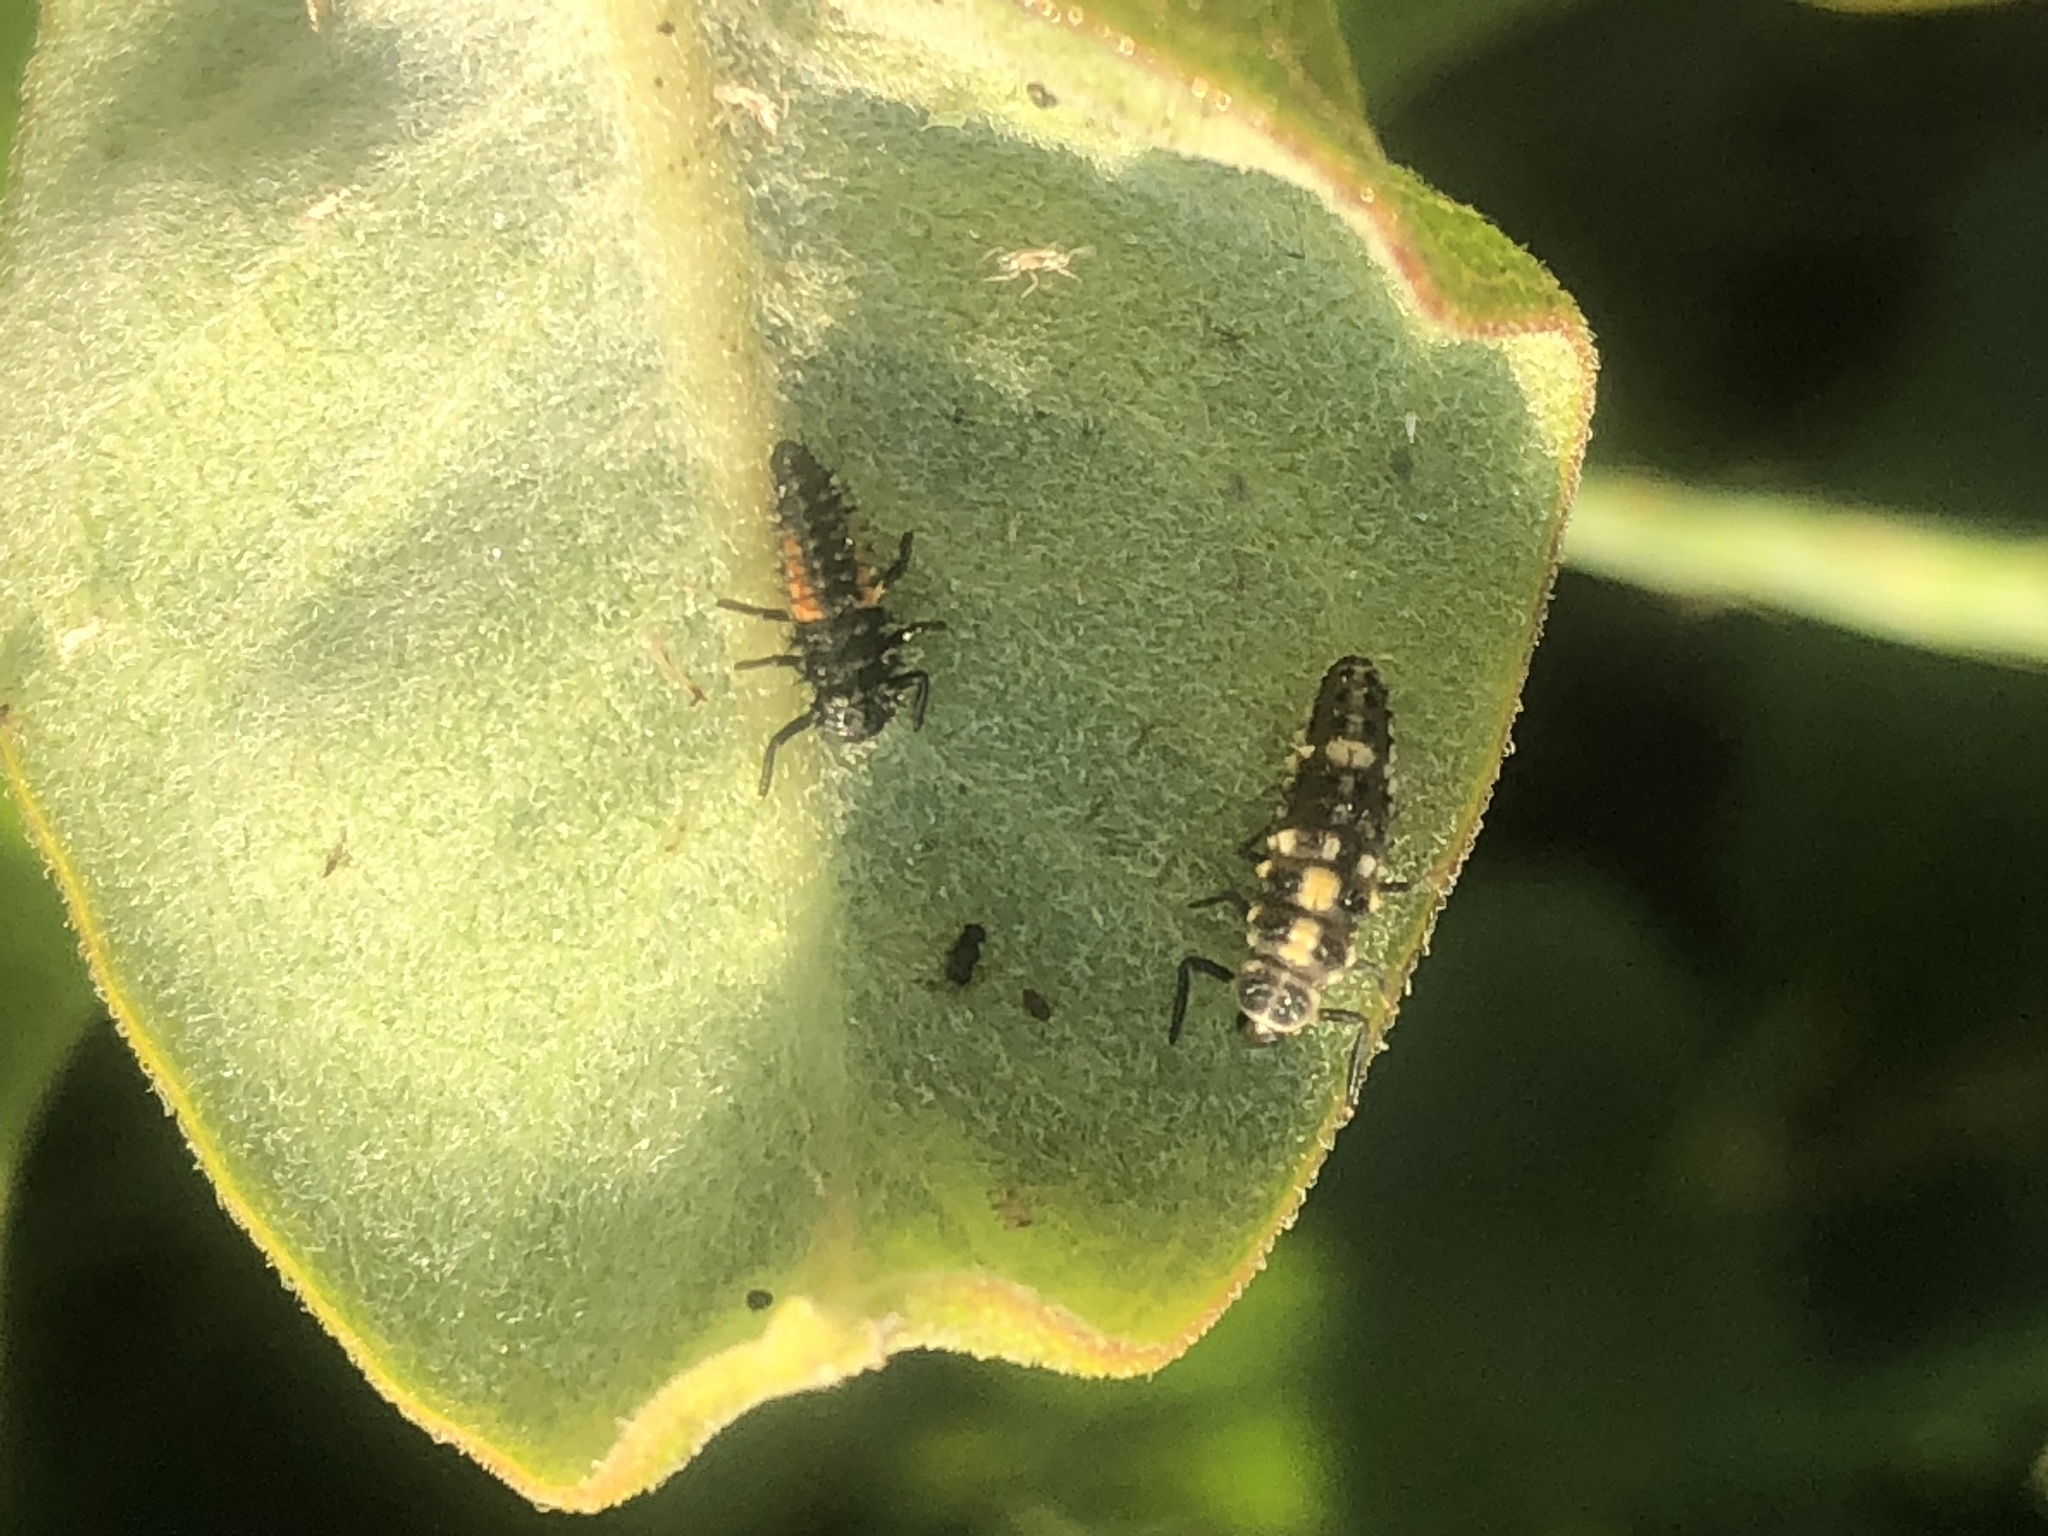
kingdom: Animalia
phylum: Arthropoda
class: Insecta
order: Coleoptera
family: Coccinellidae
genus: Harmonia
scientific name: Harmonia axyridis
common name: Harlequin ladybird
